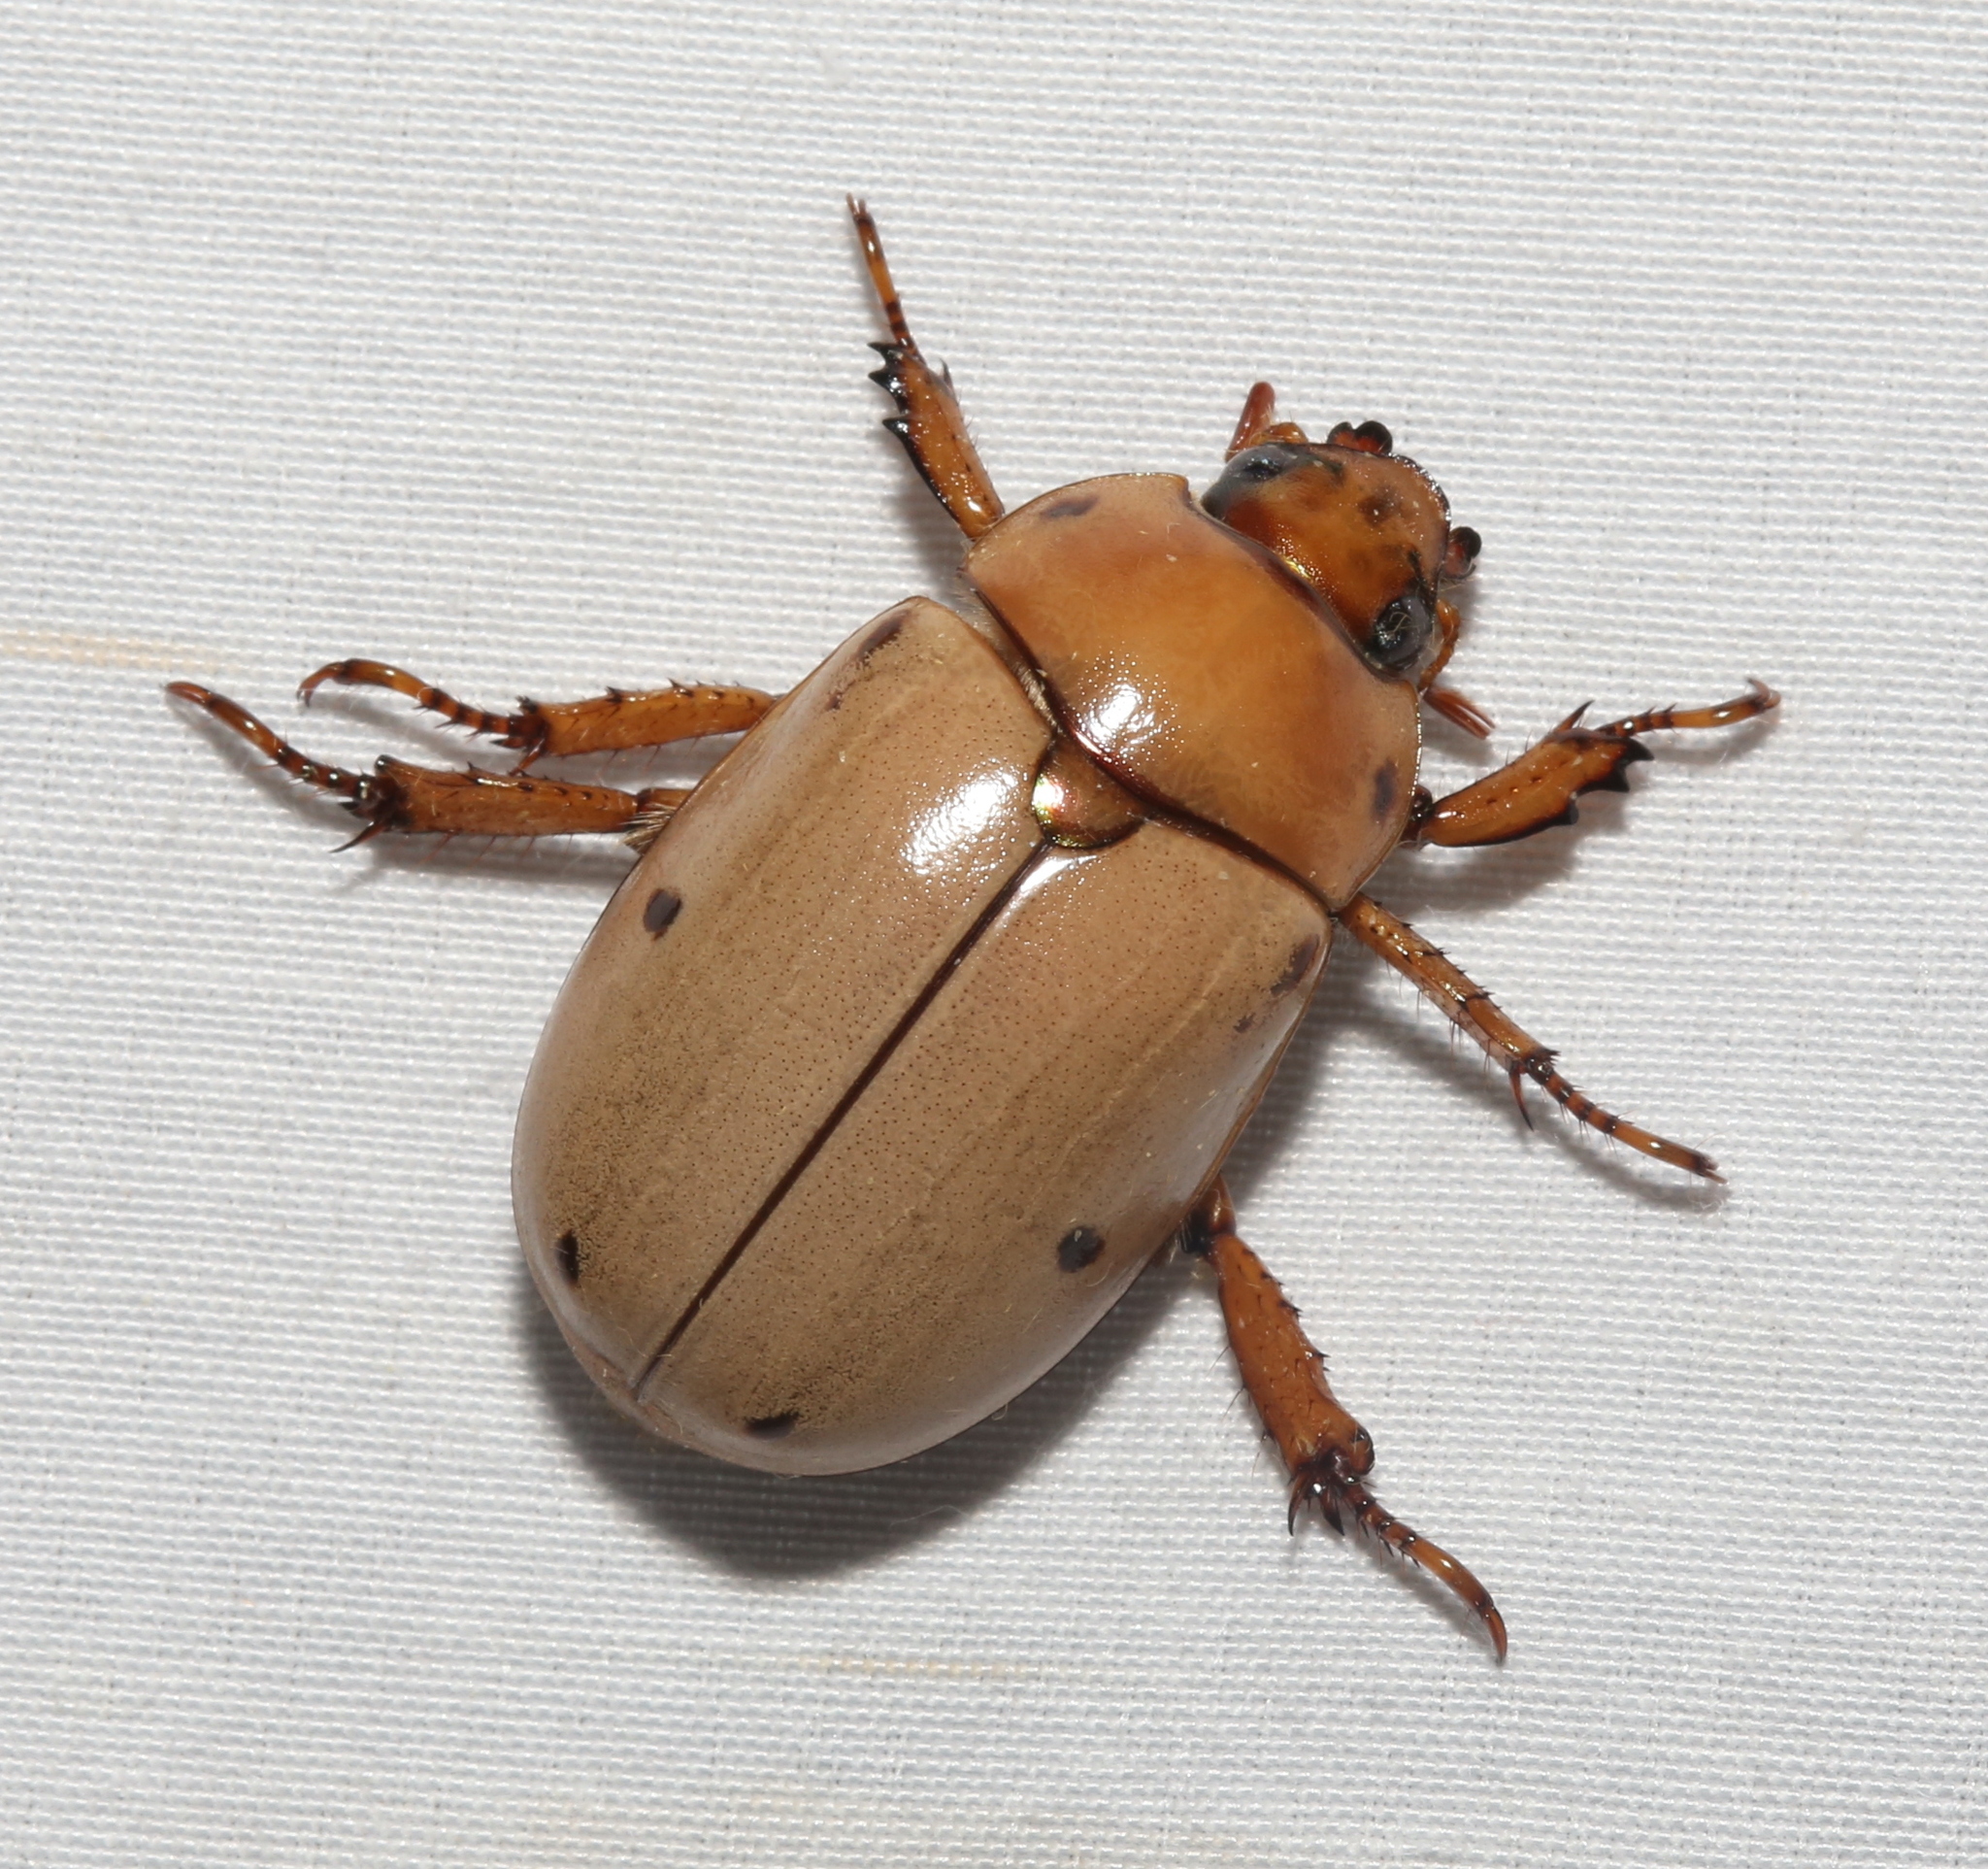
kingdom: Animalia
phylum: Arthropoda
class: Insecta
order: Coleoptera
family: Scarabaeidae
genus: Pelidnota
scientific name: Pelidnota punctata
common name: Grapevine beetle
